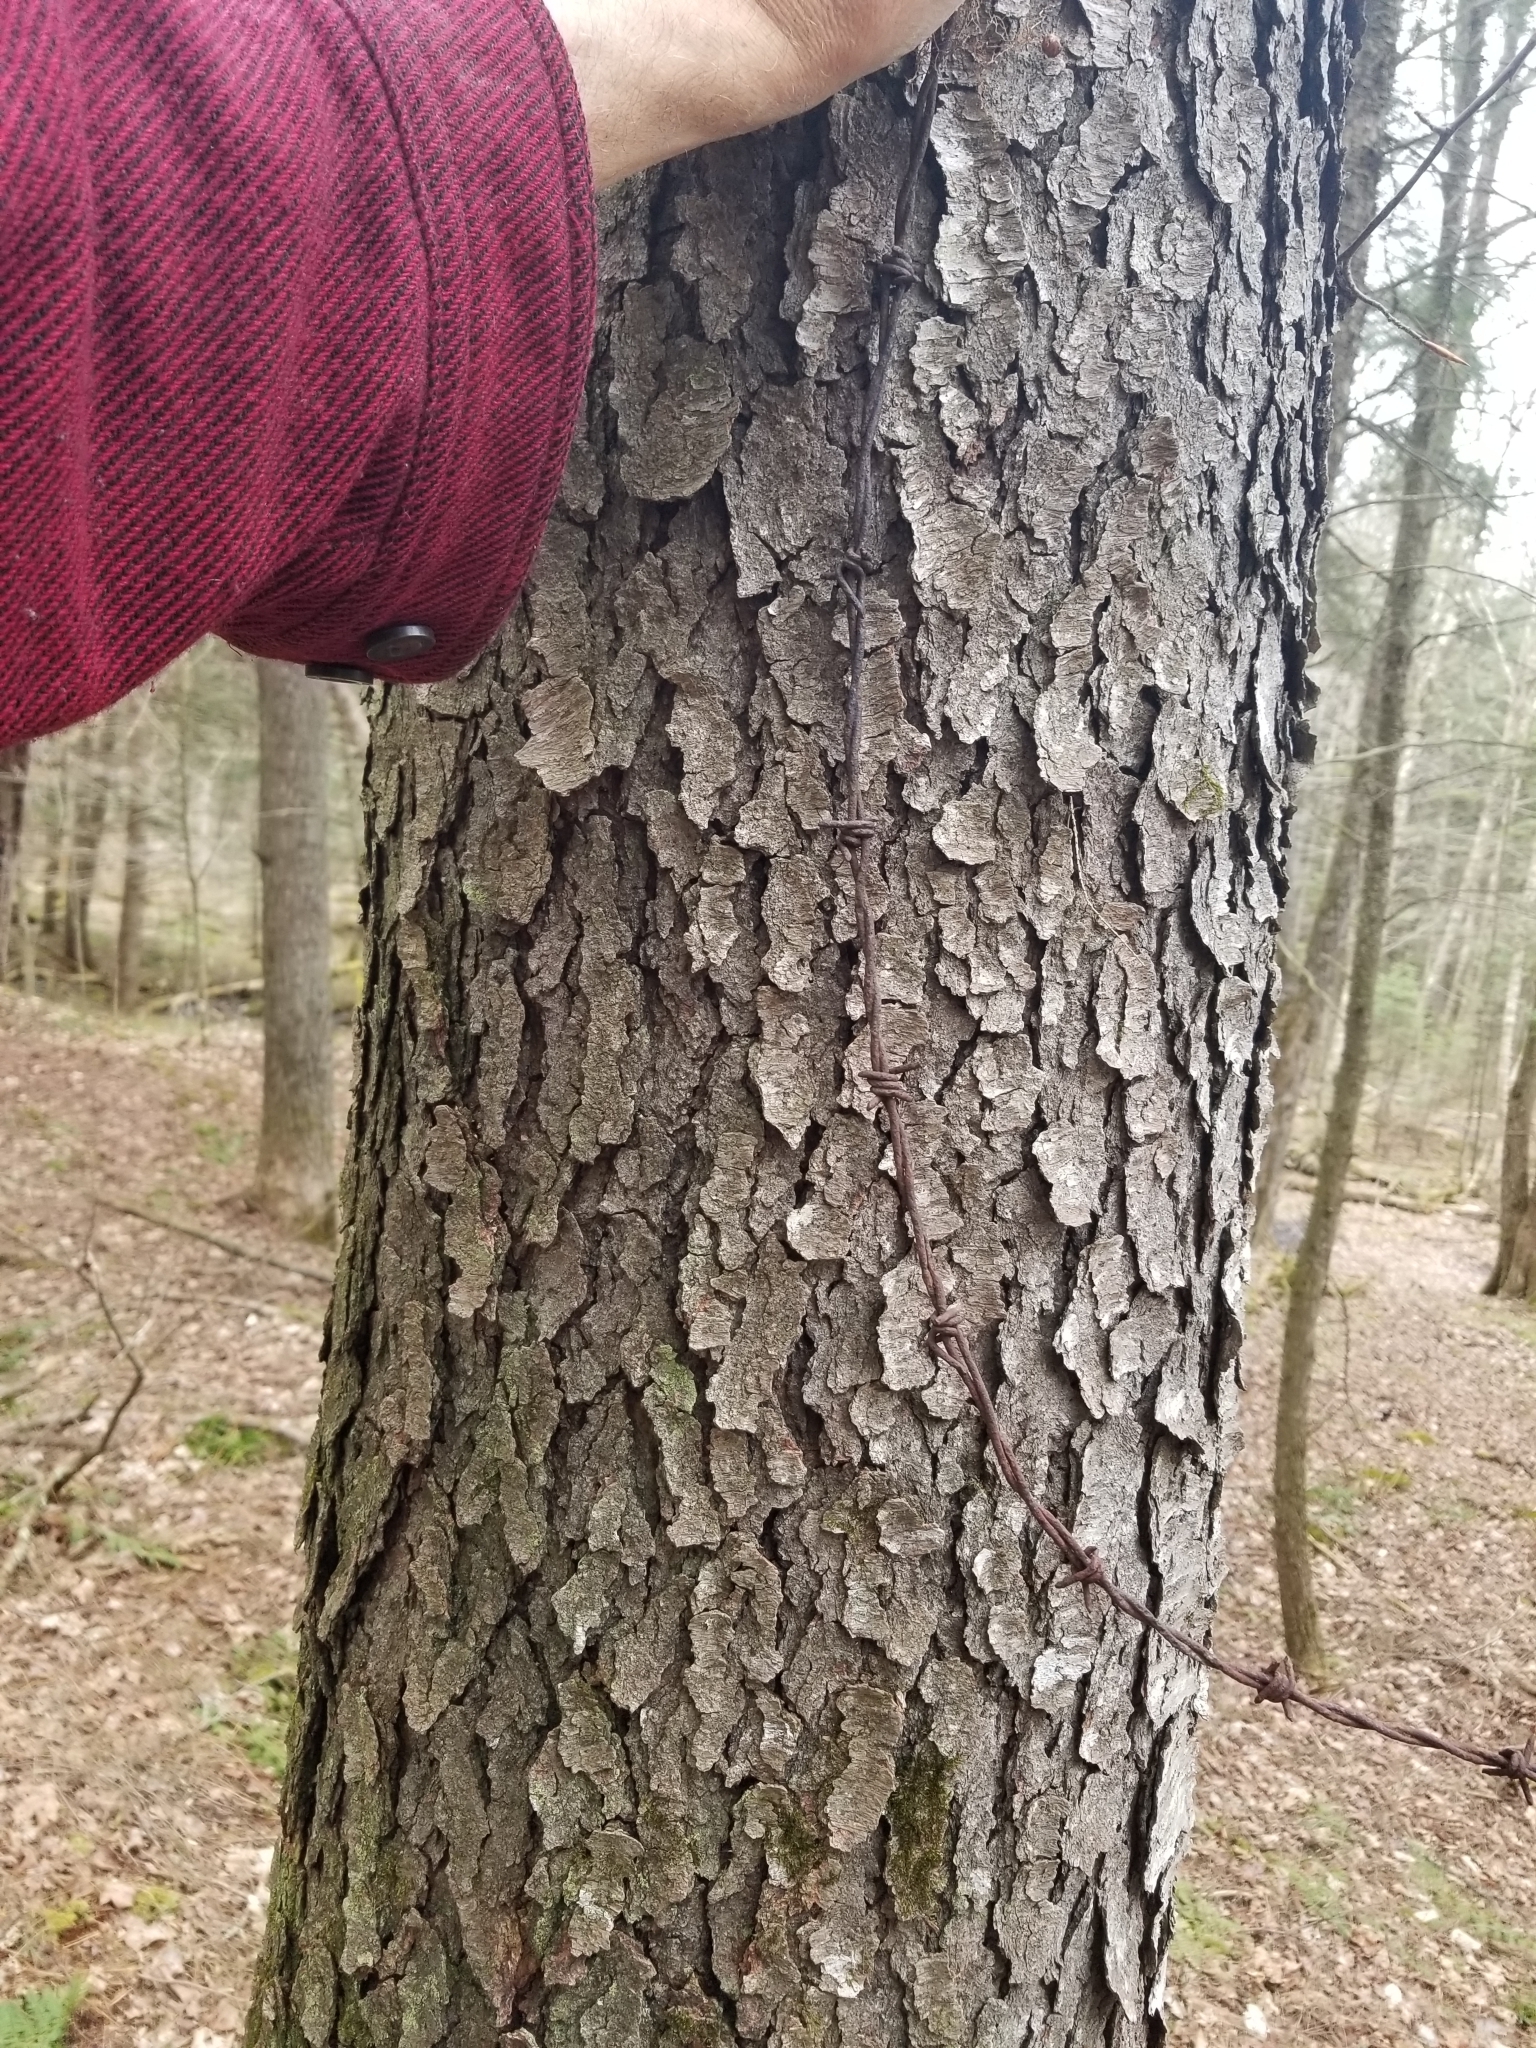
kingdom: Plantae
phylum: Tracheophyta
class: Magnoliopsida
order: Rosales
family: Rosaceae
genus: Prunus
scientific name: Prunus serotina
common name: Black cherry
